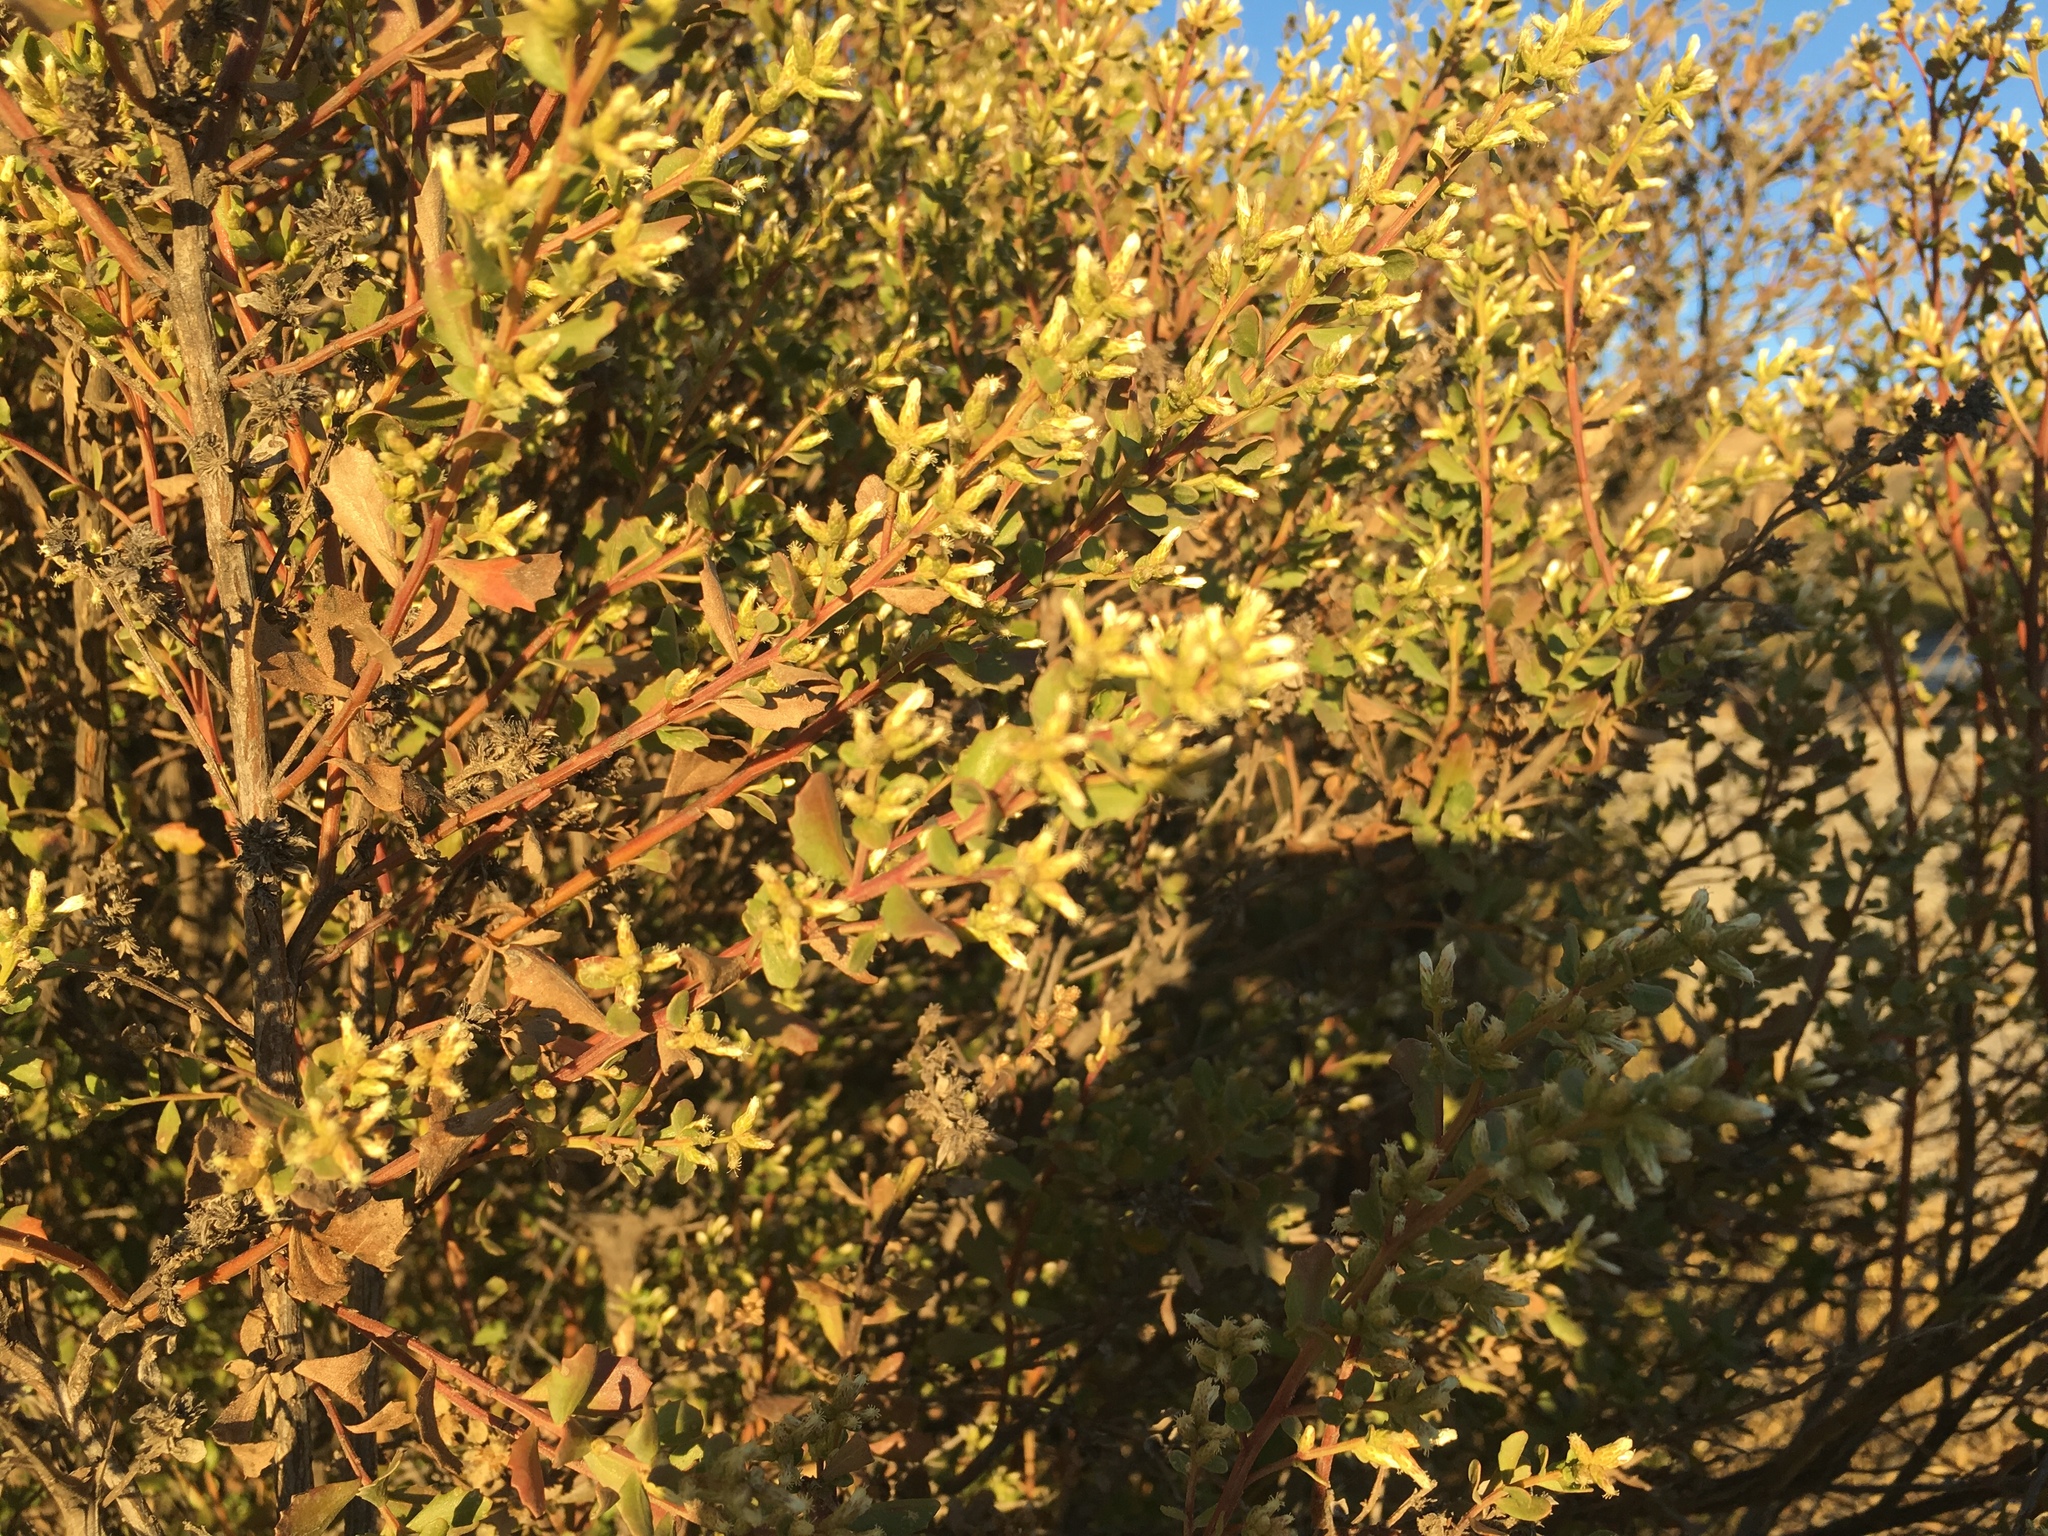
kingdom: Plantae
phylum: Tracheophyta
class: Magnoliopsida
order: Asterales
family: Asteraceae
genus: Baccharis
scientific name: Baccharis pilularis
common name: Coyotebrush
